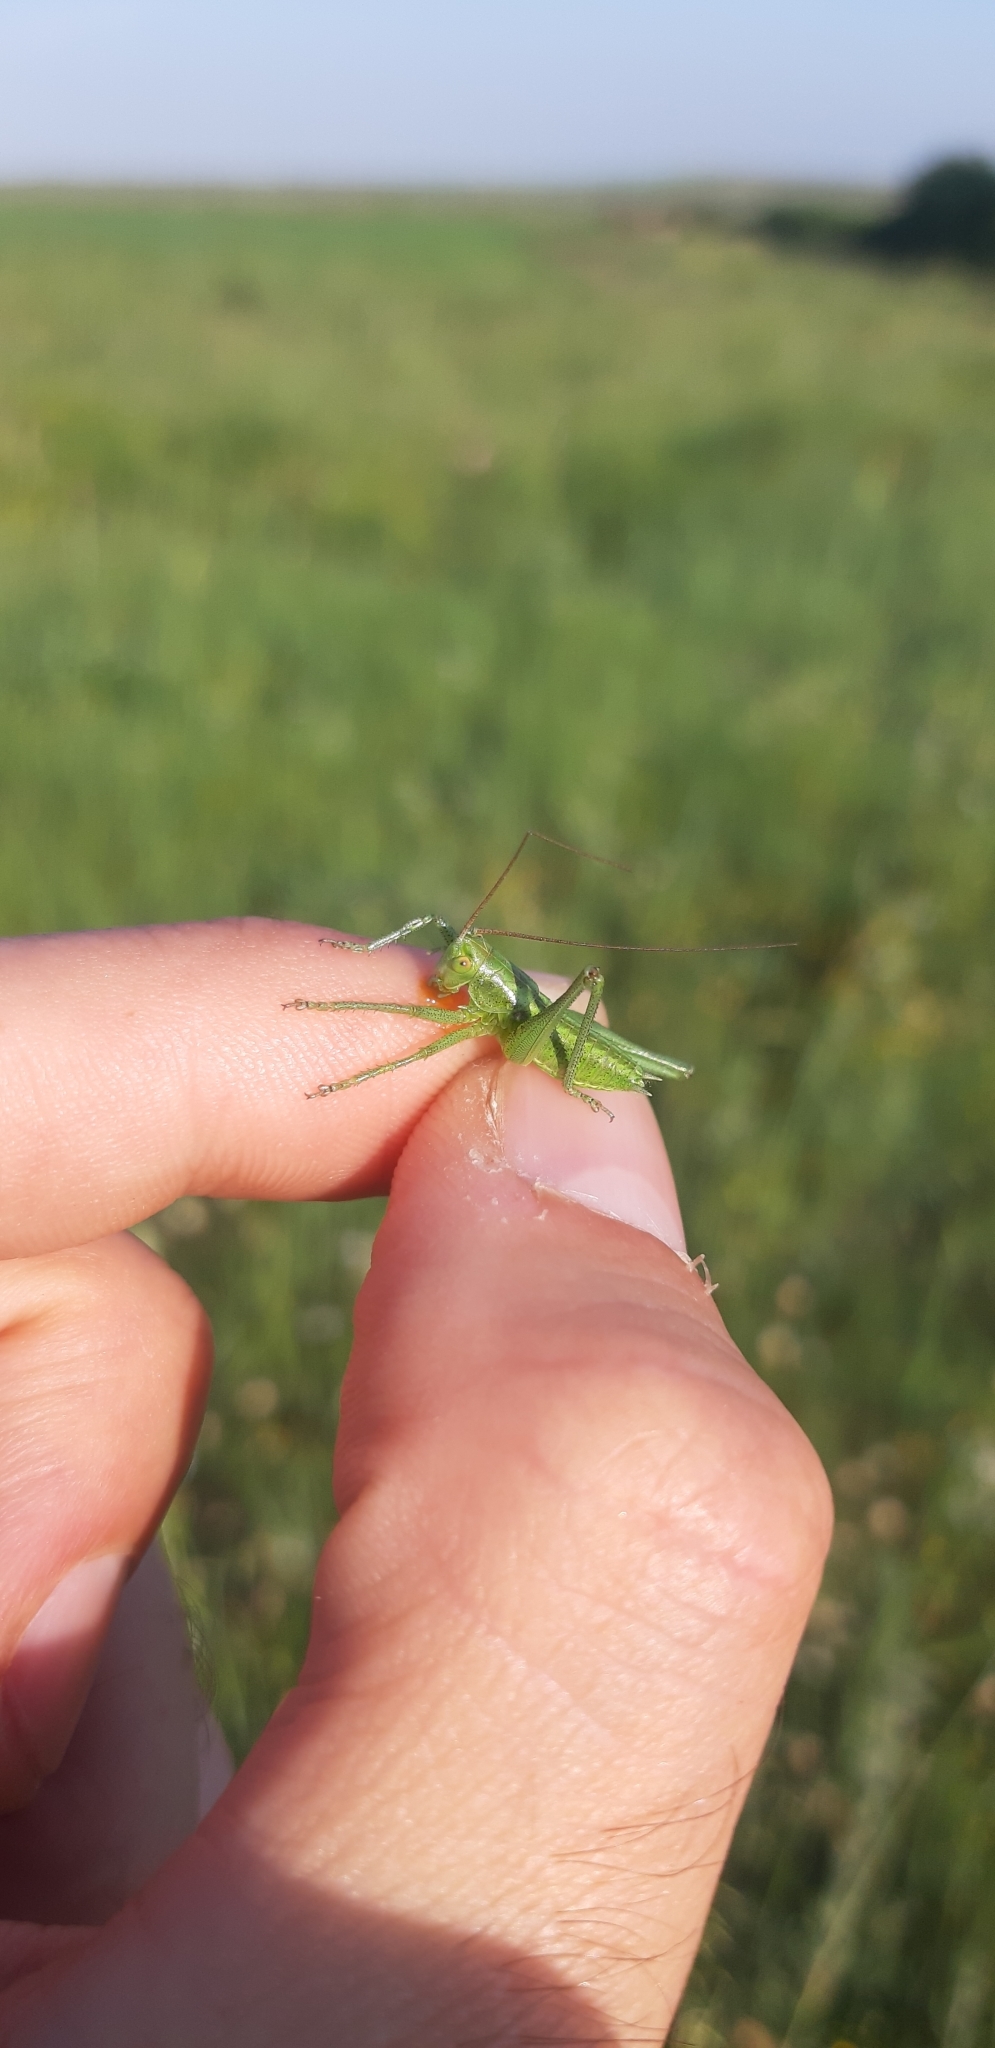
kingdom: Animalia
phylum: Arthropoda
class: Insecta
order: Orthoptera
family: Tettigoniidae
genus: Tettigonia
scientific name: Tettigonia viridissima
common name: Great green bush-cricket
